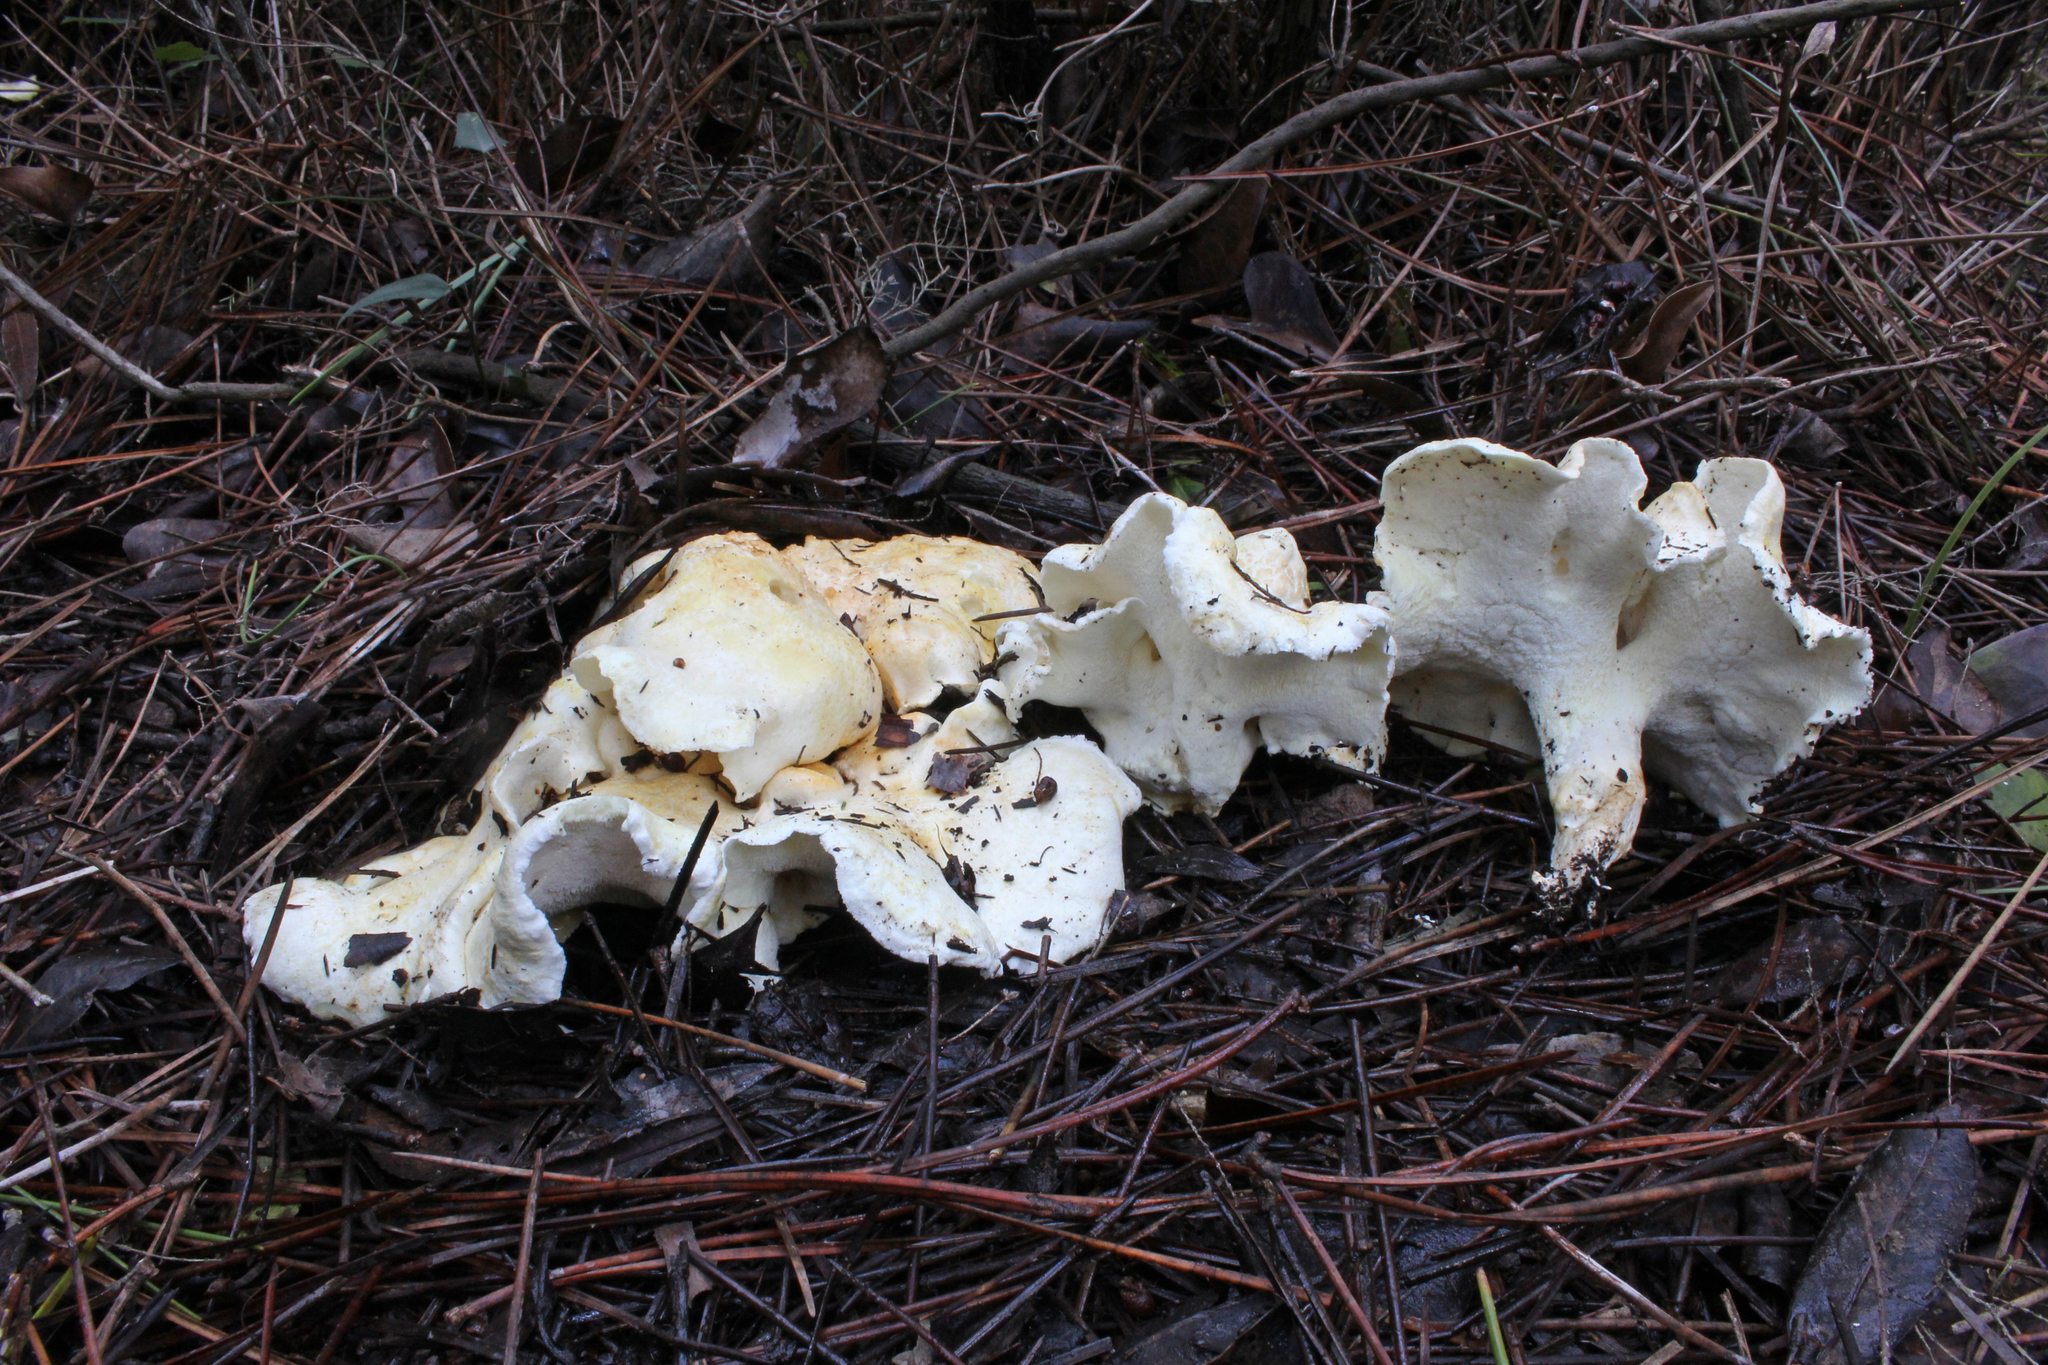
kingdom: Fungi
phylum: Basidiomycota
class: Agaricomycetes
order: Russulales
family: Albatrellaceae
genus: Albatrellus
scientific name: Albatrellus subrubescens
